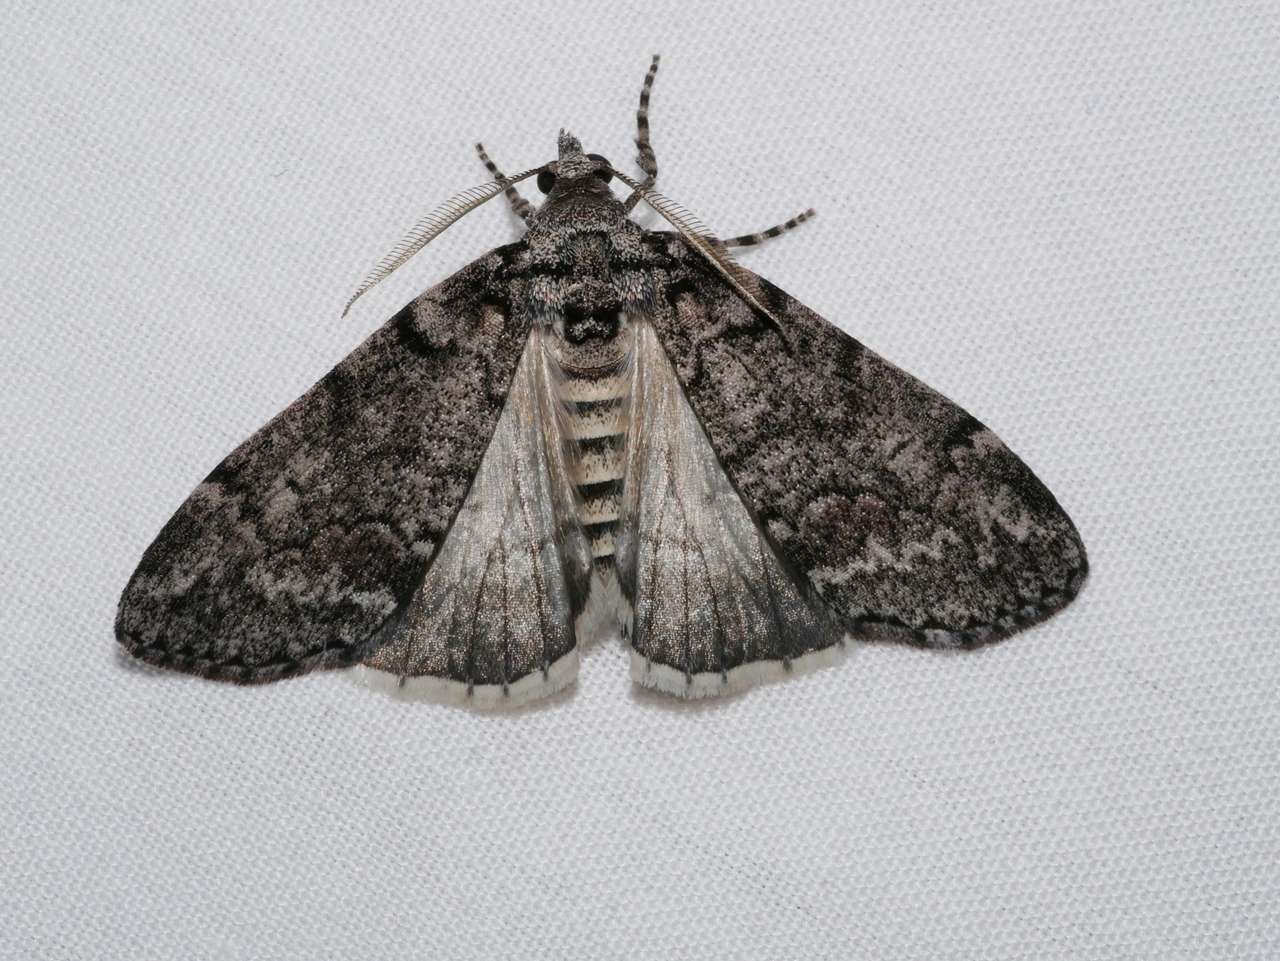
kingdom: Animalia
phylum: Arthropoda
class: Insecta
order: Lepidoptera
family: Geometridae
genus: Smyriodes
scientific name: Smyriodes trigramma
